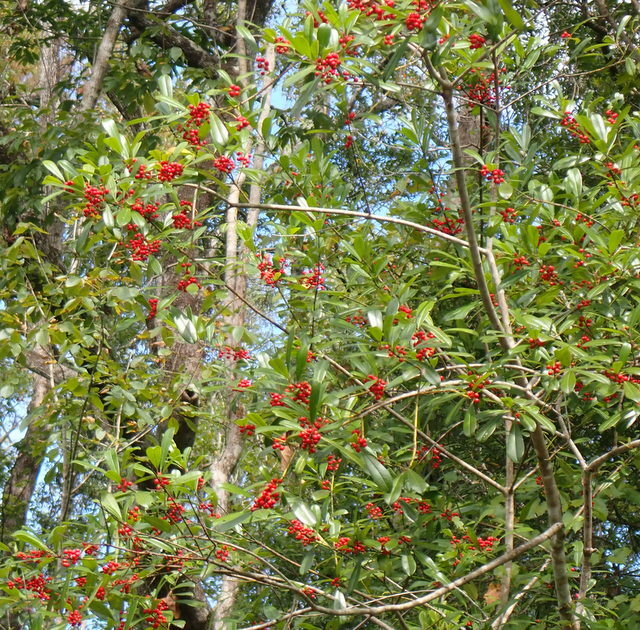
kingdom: Plantae
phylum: Tracheophyta
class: Magnoliopsida
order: Aquifoliales
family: Aquifoliaceae
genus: Ilex
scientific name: Ilex cassine
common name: Dahoon
